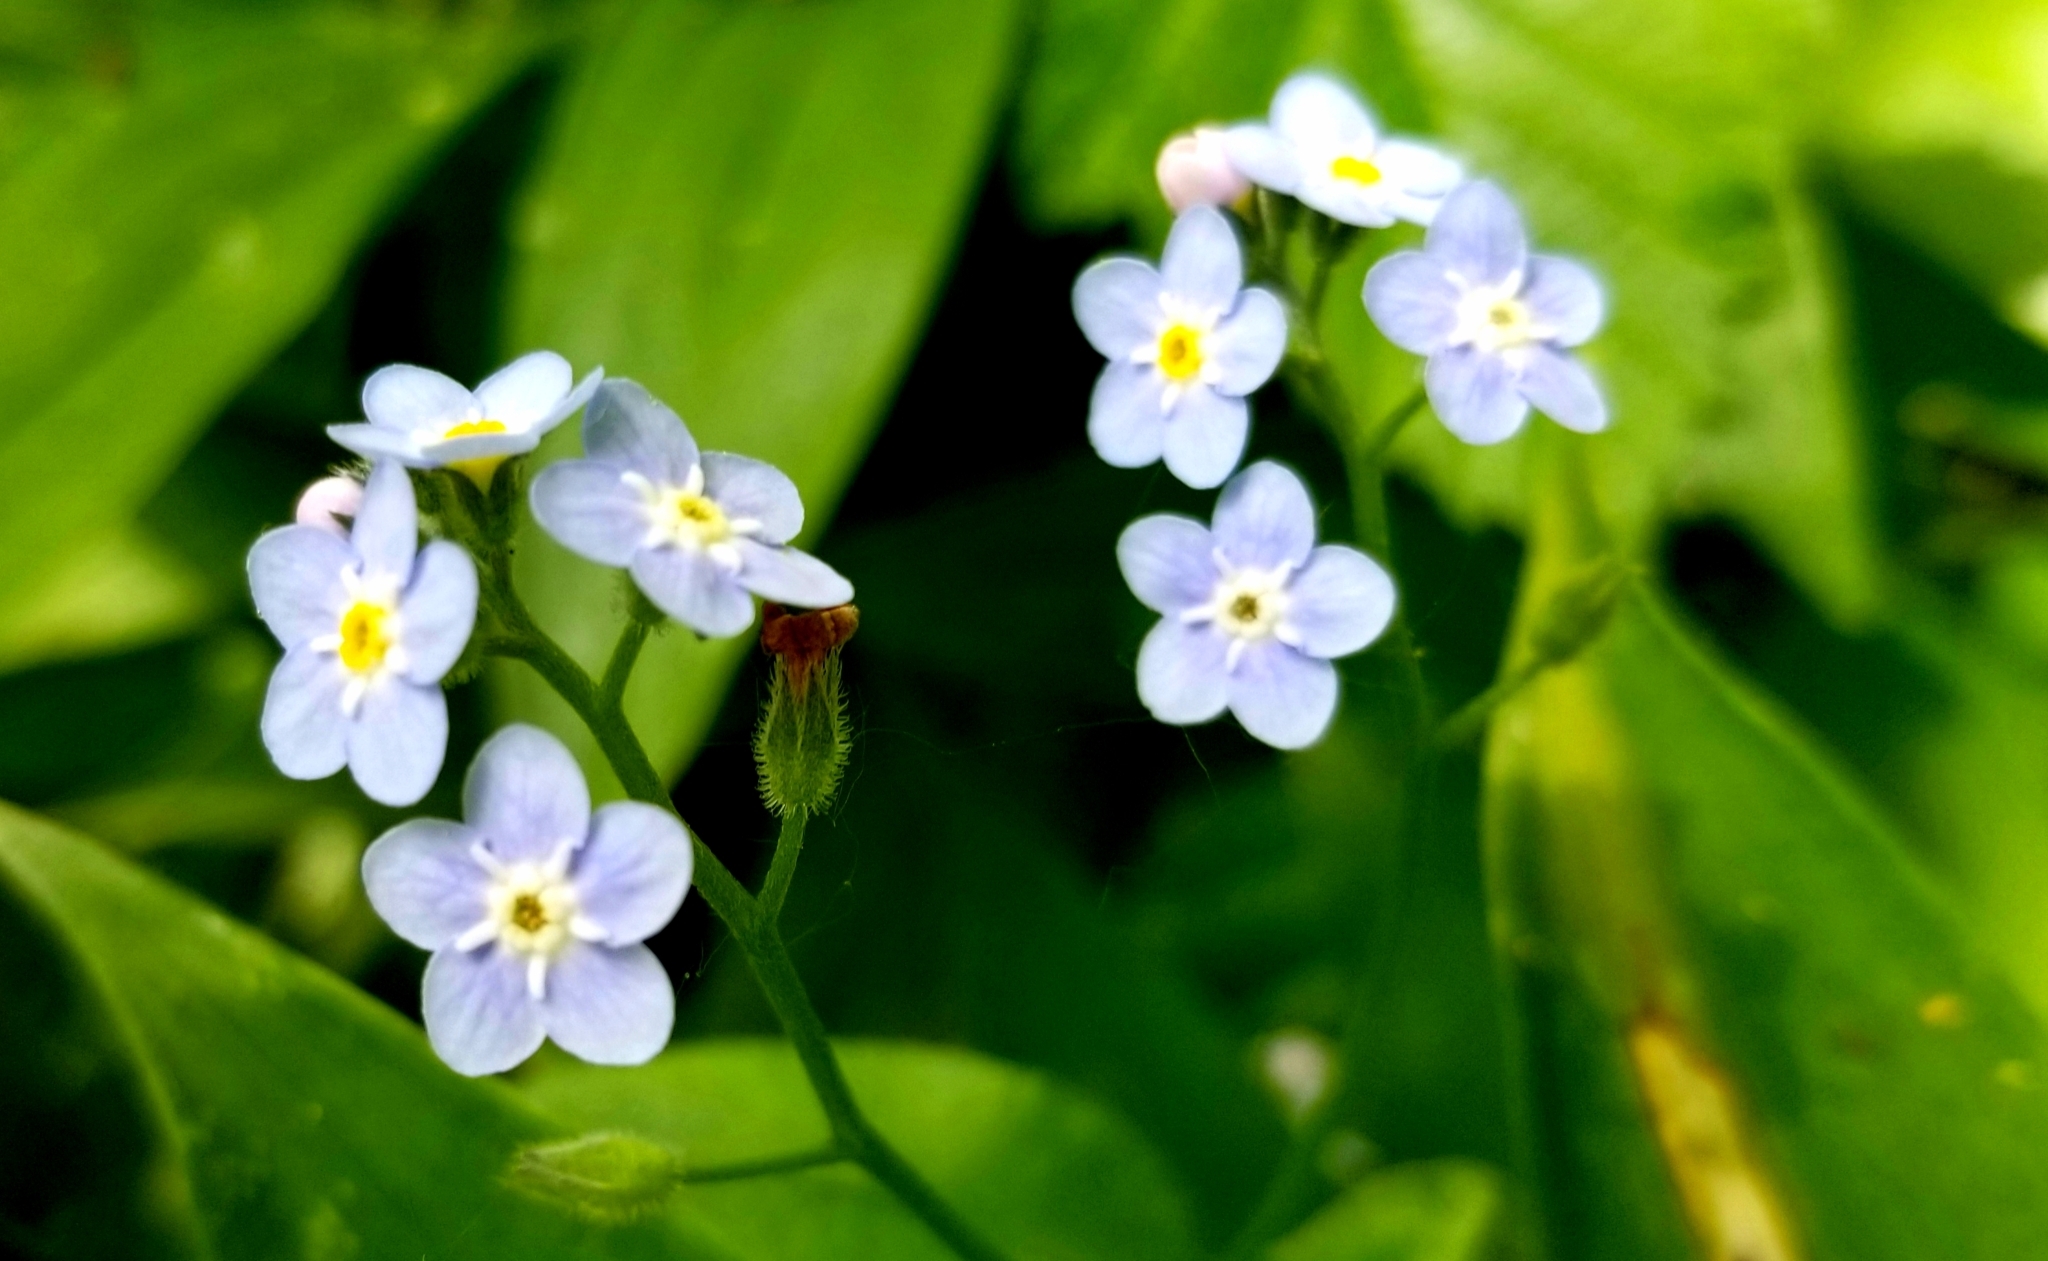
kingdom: Plantae
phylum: Tracheophyta
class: Magnoliopsida
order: Boraginales
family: Boraginaceae
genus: Myosotis
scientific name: Myosotis latifolia
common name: Broadleaf forget-me-not
